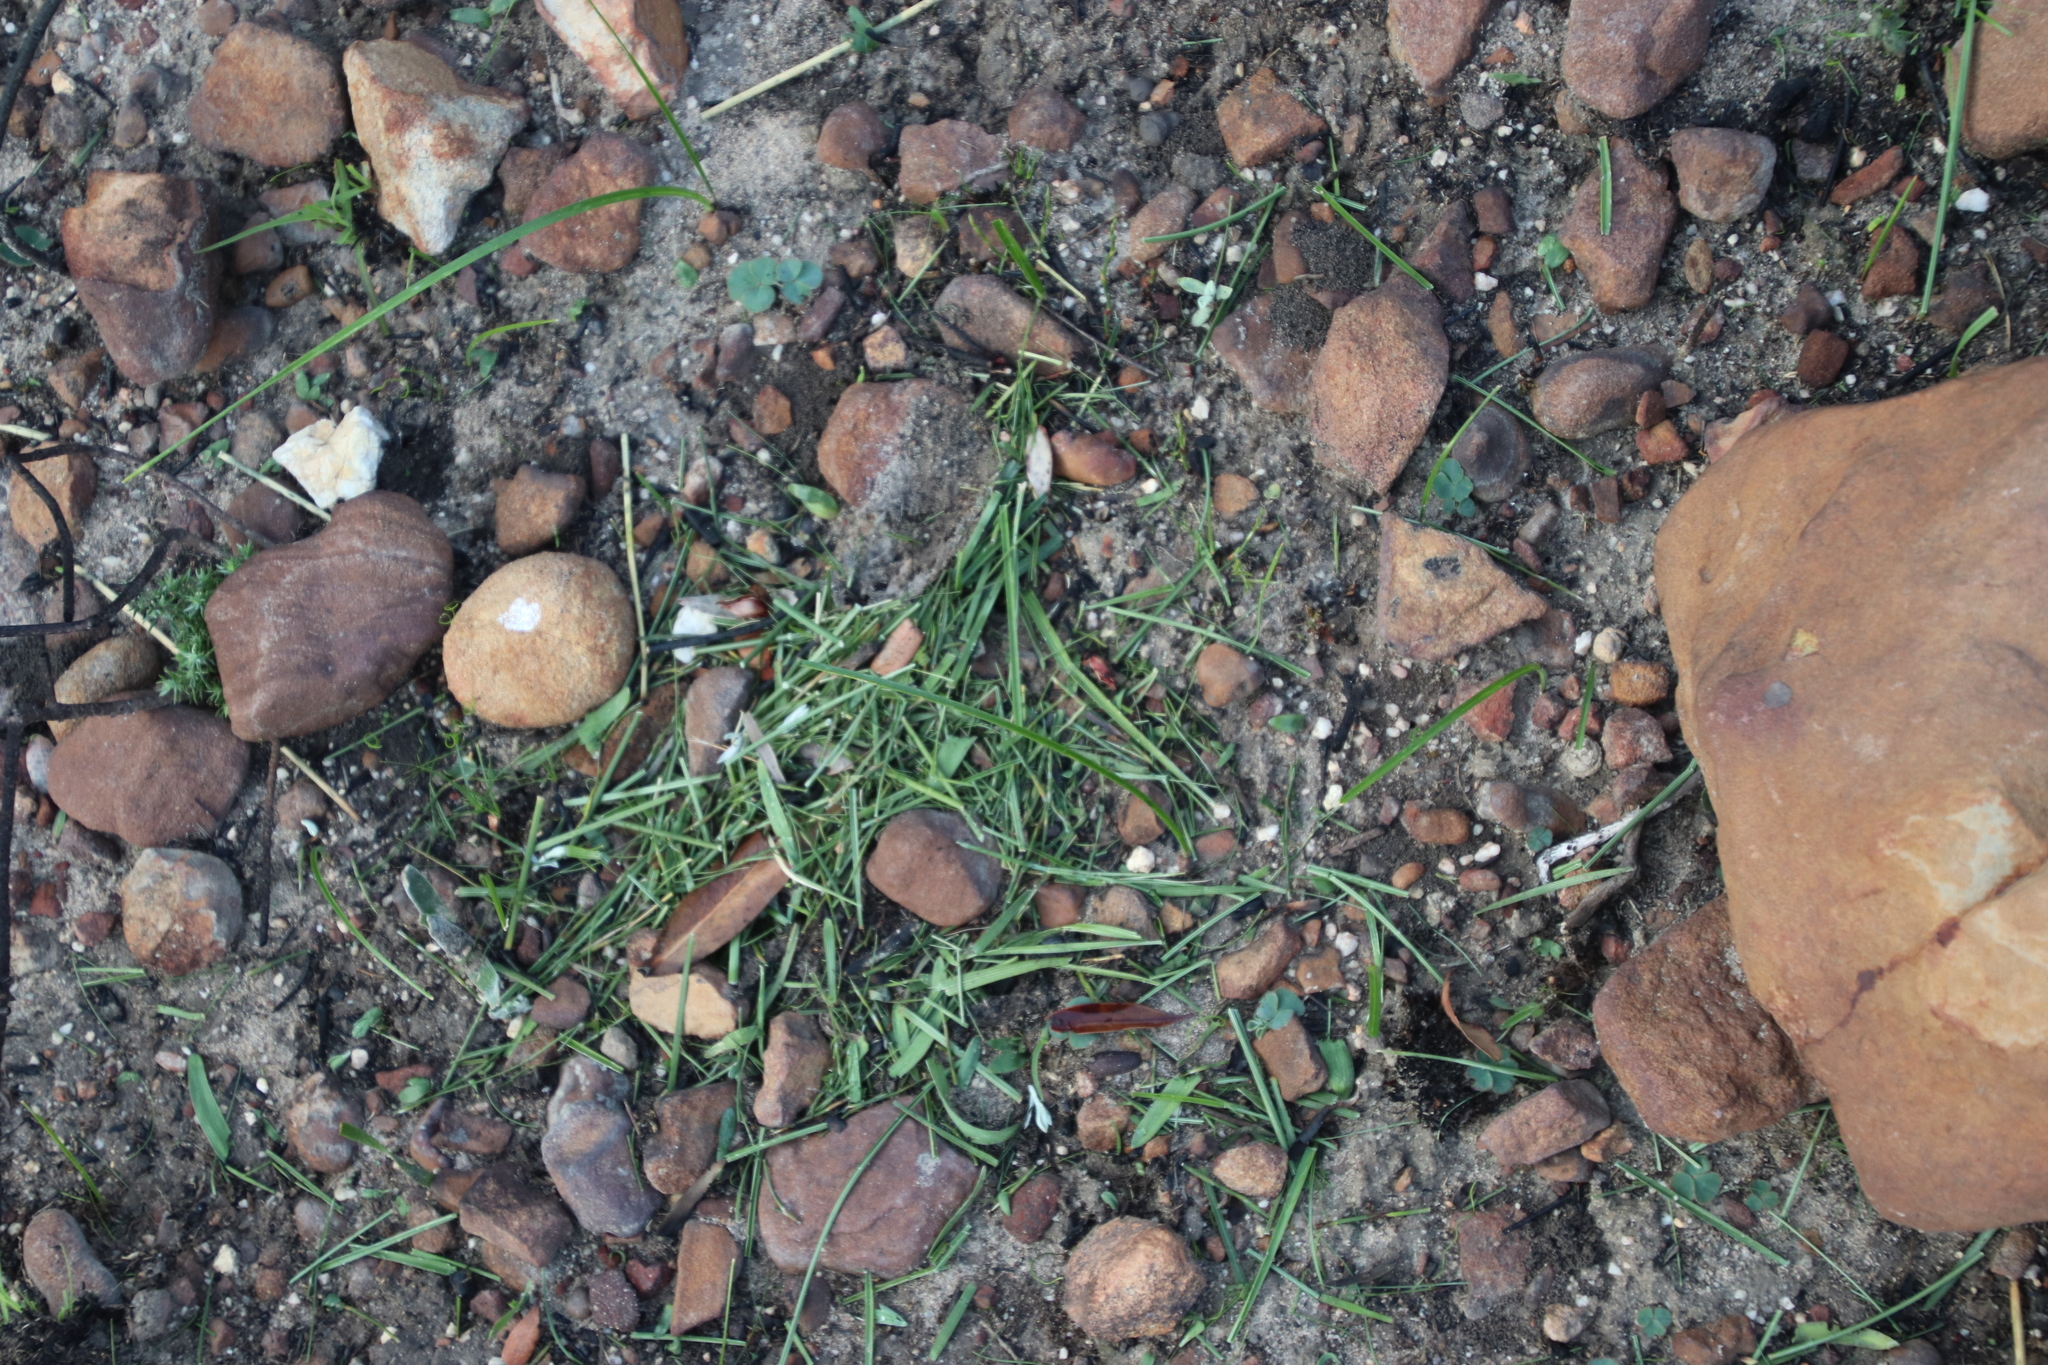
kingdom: Animalia
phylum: Arthropoda
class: Insecta
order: Blattodea
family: Hodotermitidae
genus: Microhodotermes
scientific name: Microhodotermes viator
